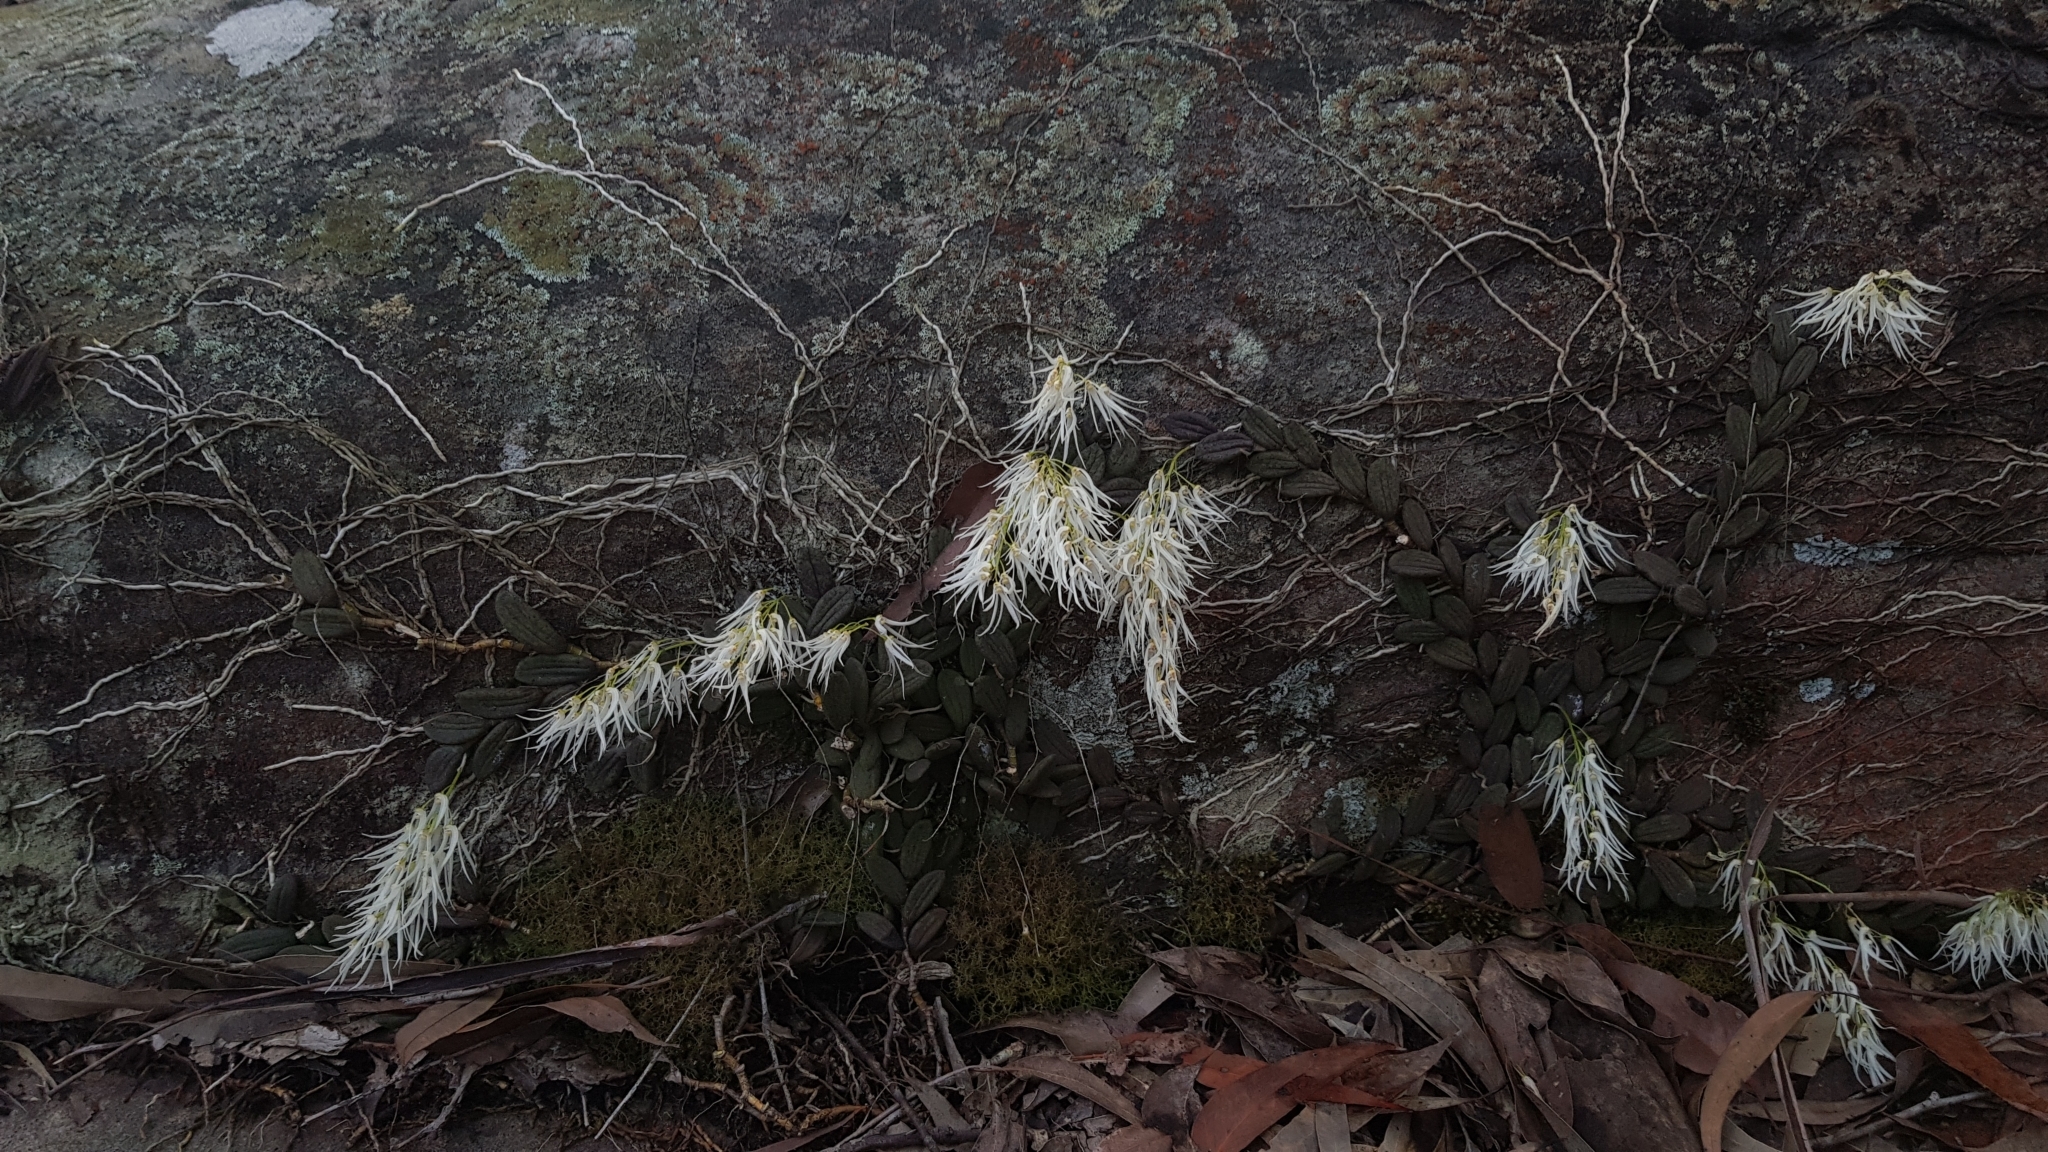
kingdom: Plantae
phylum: Tracheophyta
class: Liliopsida
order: Asparagales
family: Orchidaceae
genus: Dendrobium
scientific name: Dendrobium linguiforme
